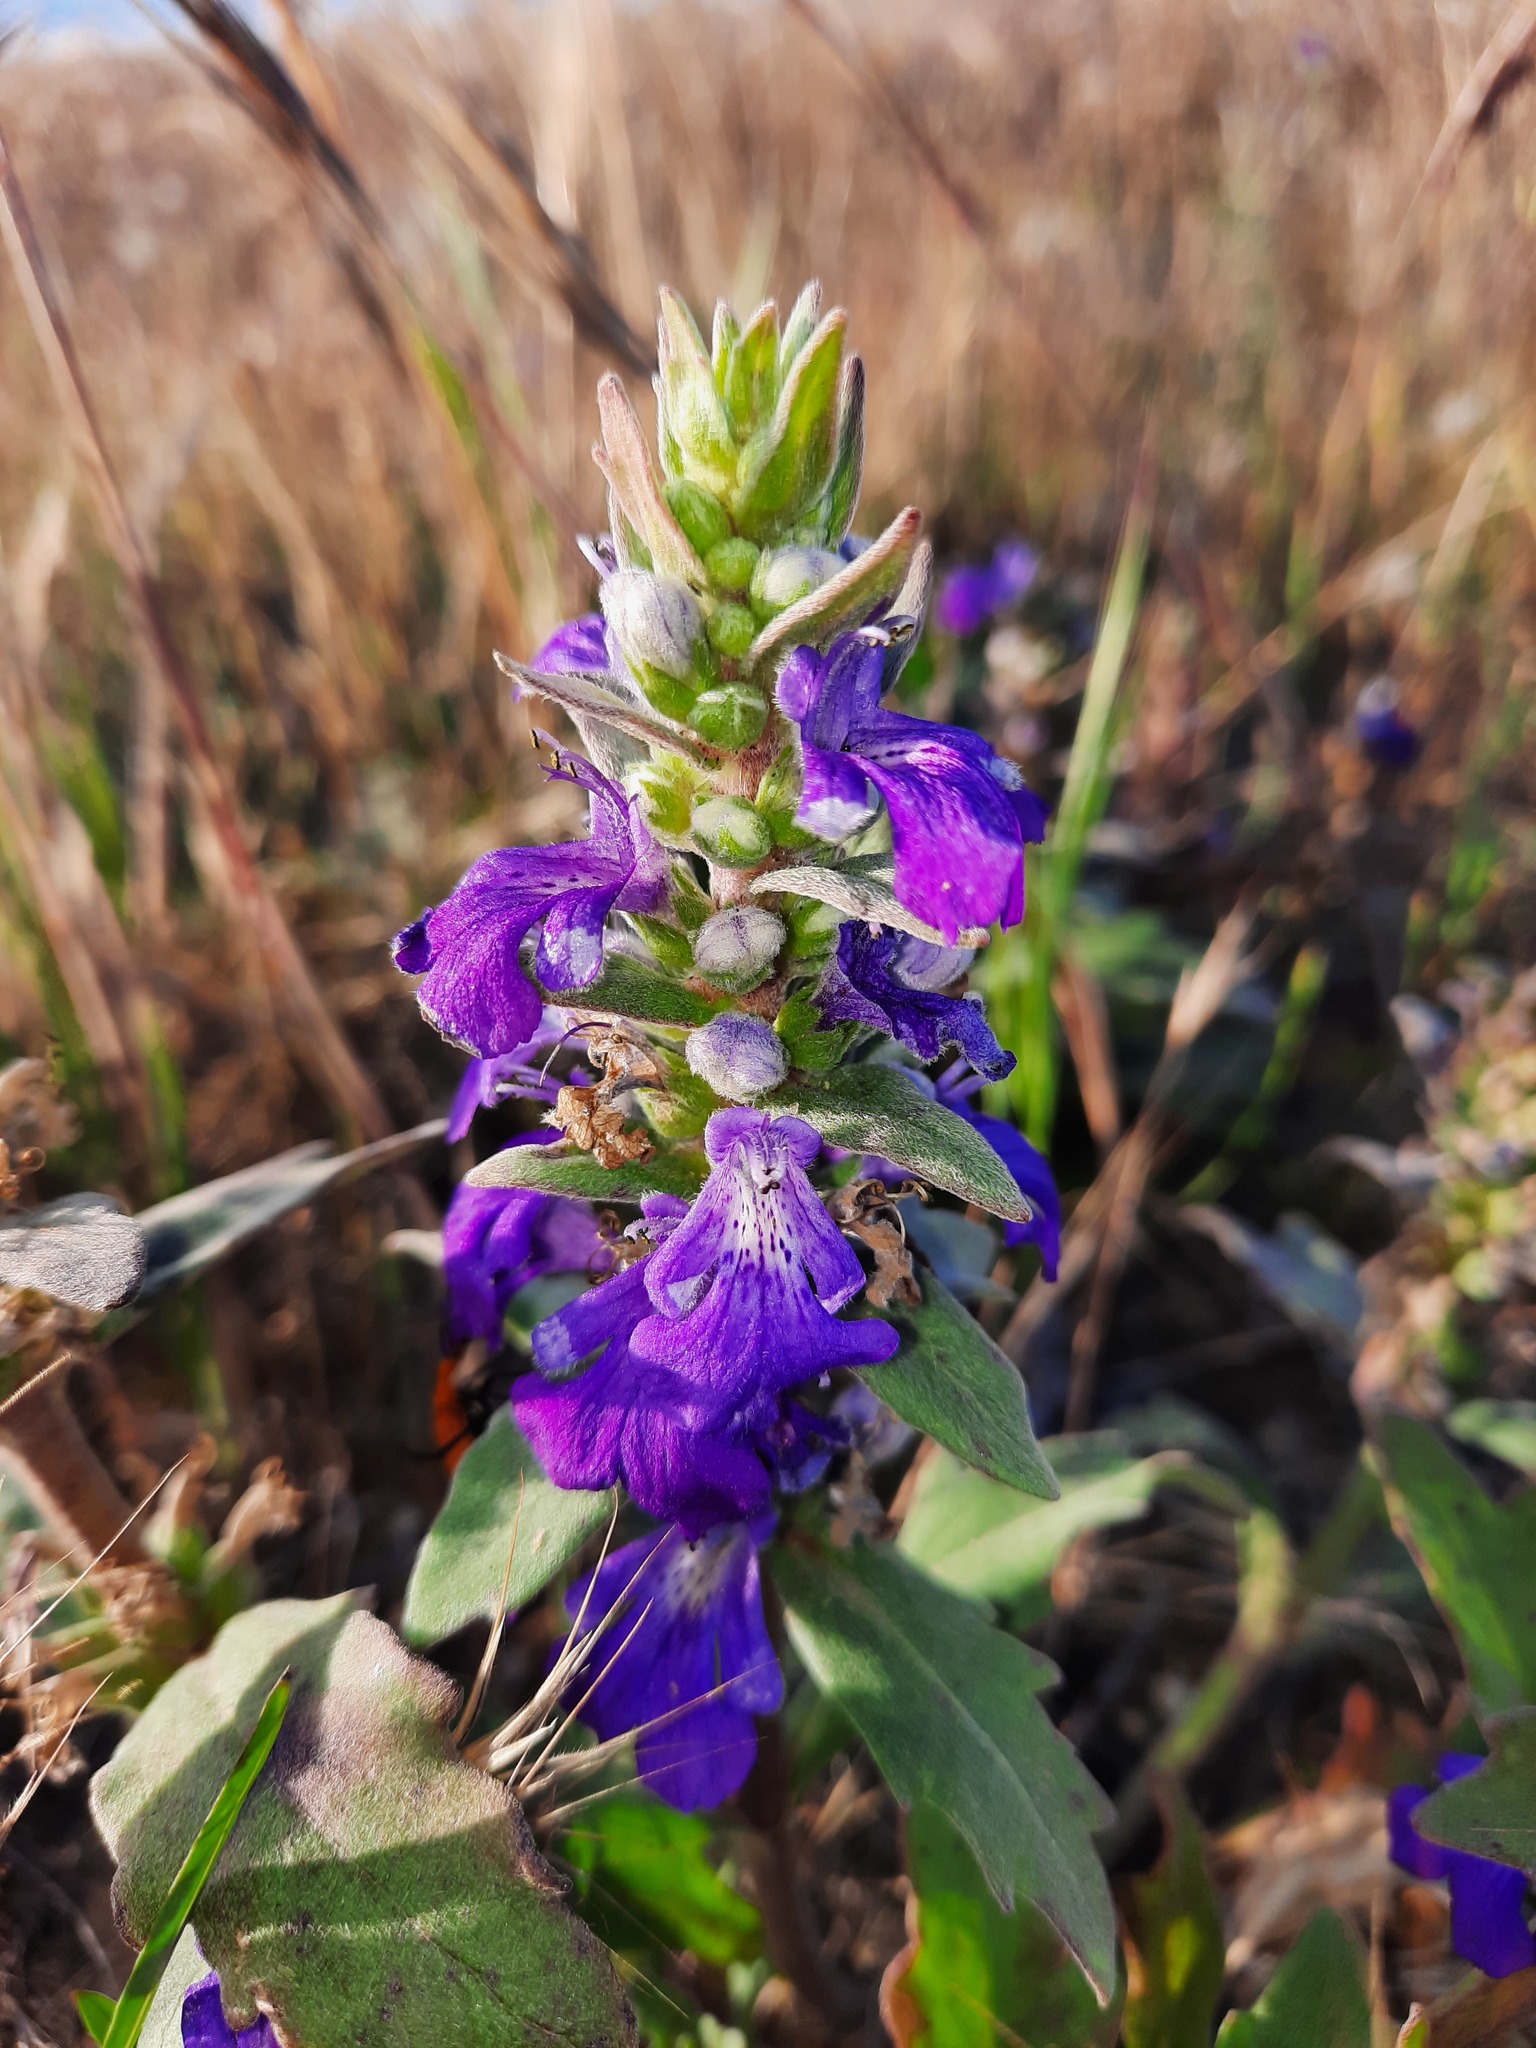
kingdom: Plantae
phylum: Tracheophyta
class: Magnoliopsida
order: Lamiales
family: Lamiaceae
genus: Ajuga
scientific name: Ajuga australis
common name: Australian bugle
